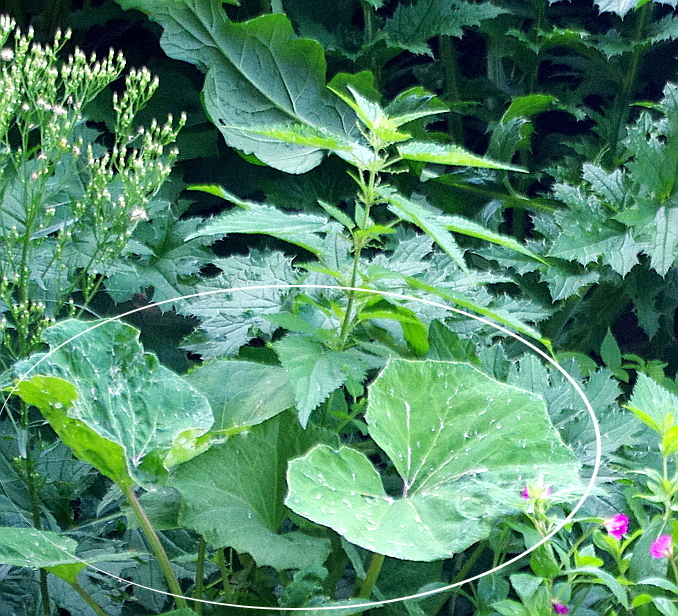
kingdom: Plantae
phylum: Tracheophyta
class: Magnoliopsida
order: Asterales
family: Asteraceae
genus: Tussilago
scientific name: Tussilago farfara
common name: Coltsfoot
